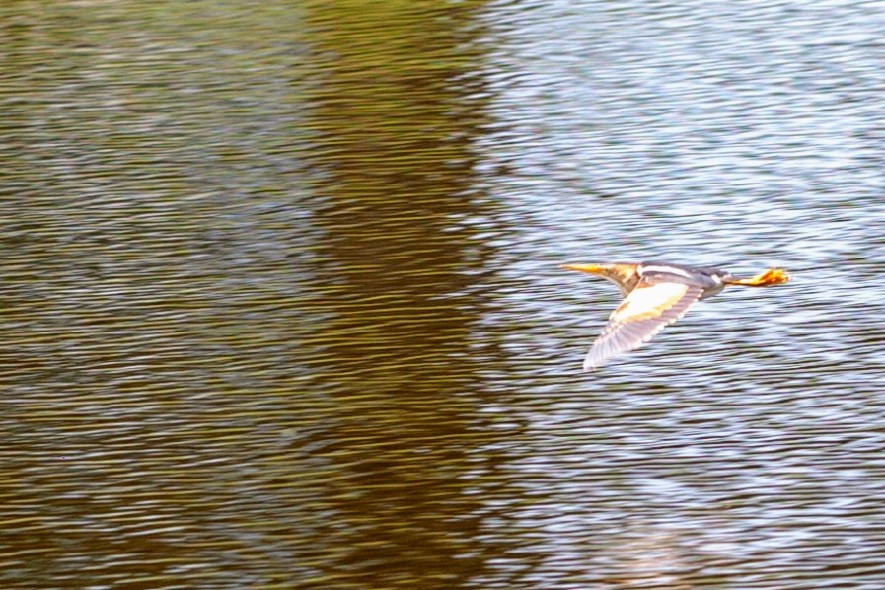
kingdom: Animalia
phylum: Chordata
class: Aves
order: Pelecaniformes
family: Ardeidae
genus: Ixobrychus
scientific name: Ixobrychus exilis
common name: Least bittern
